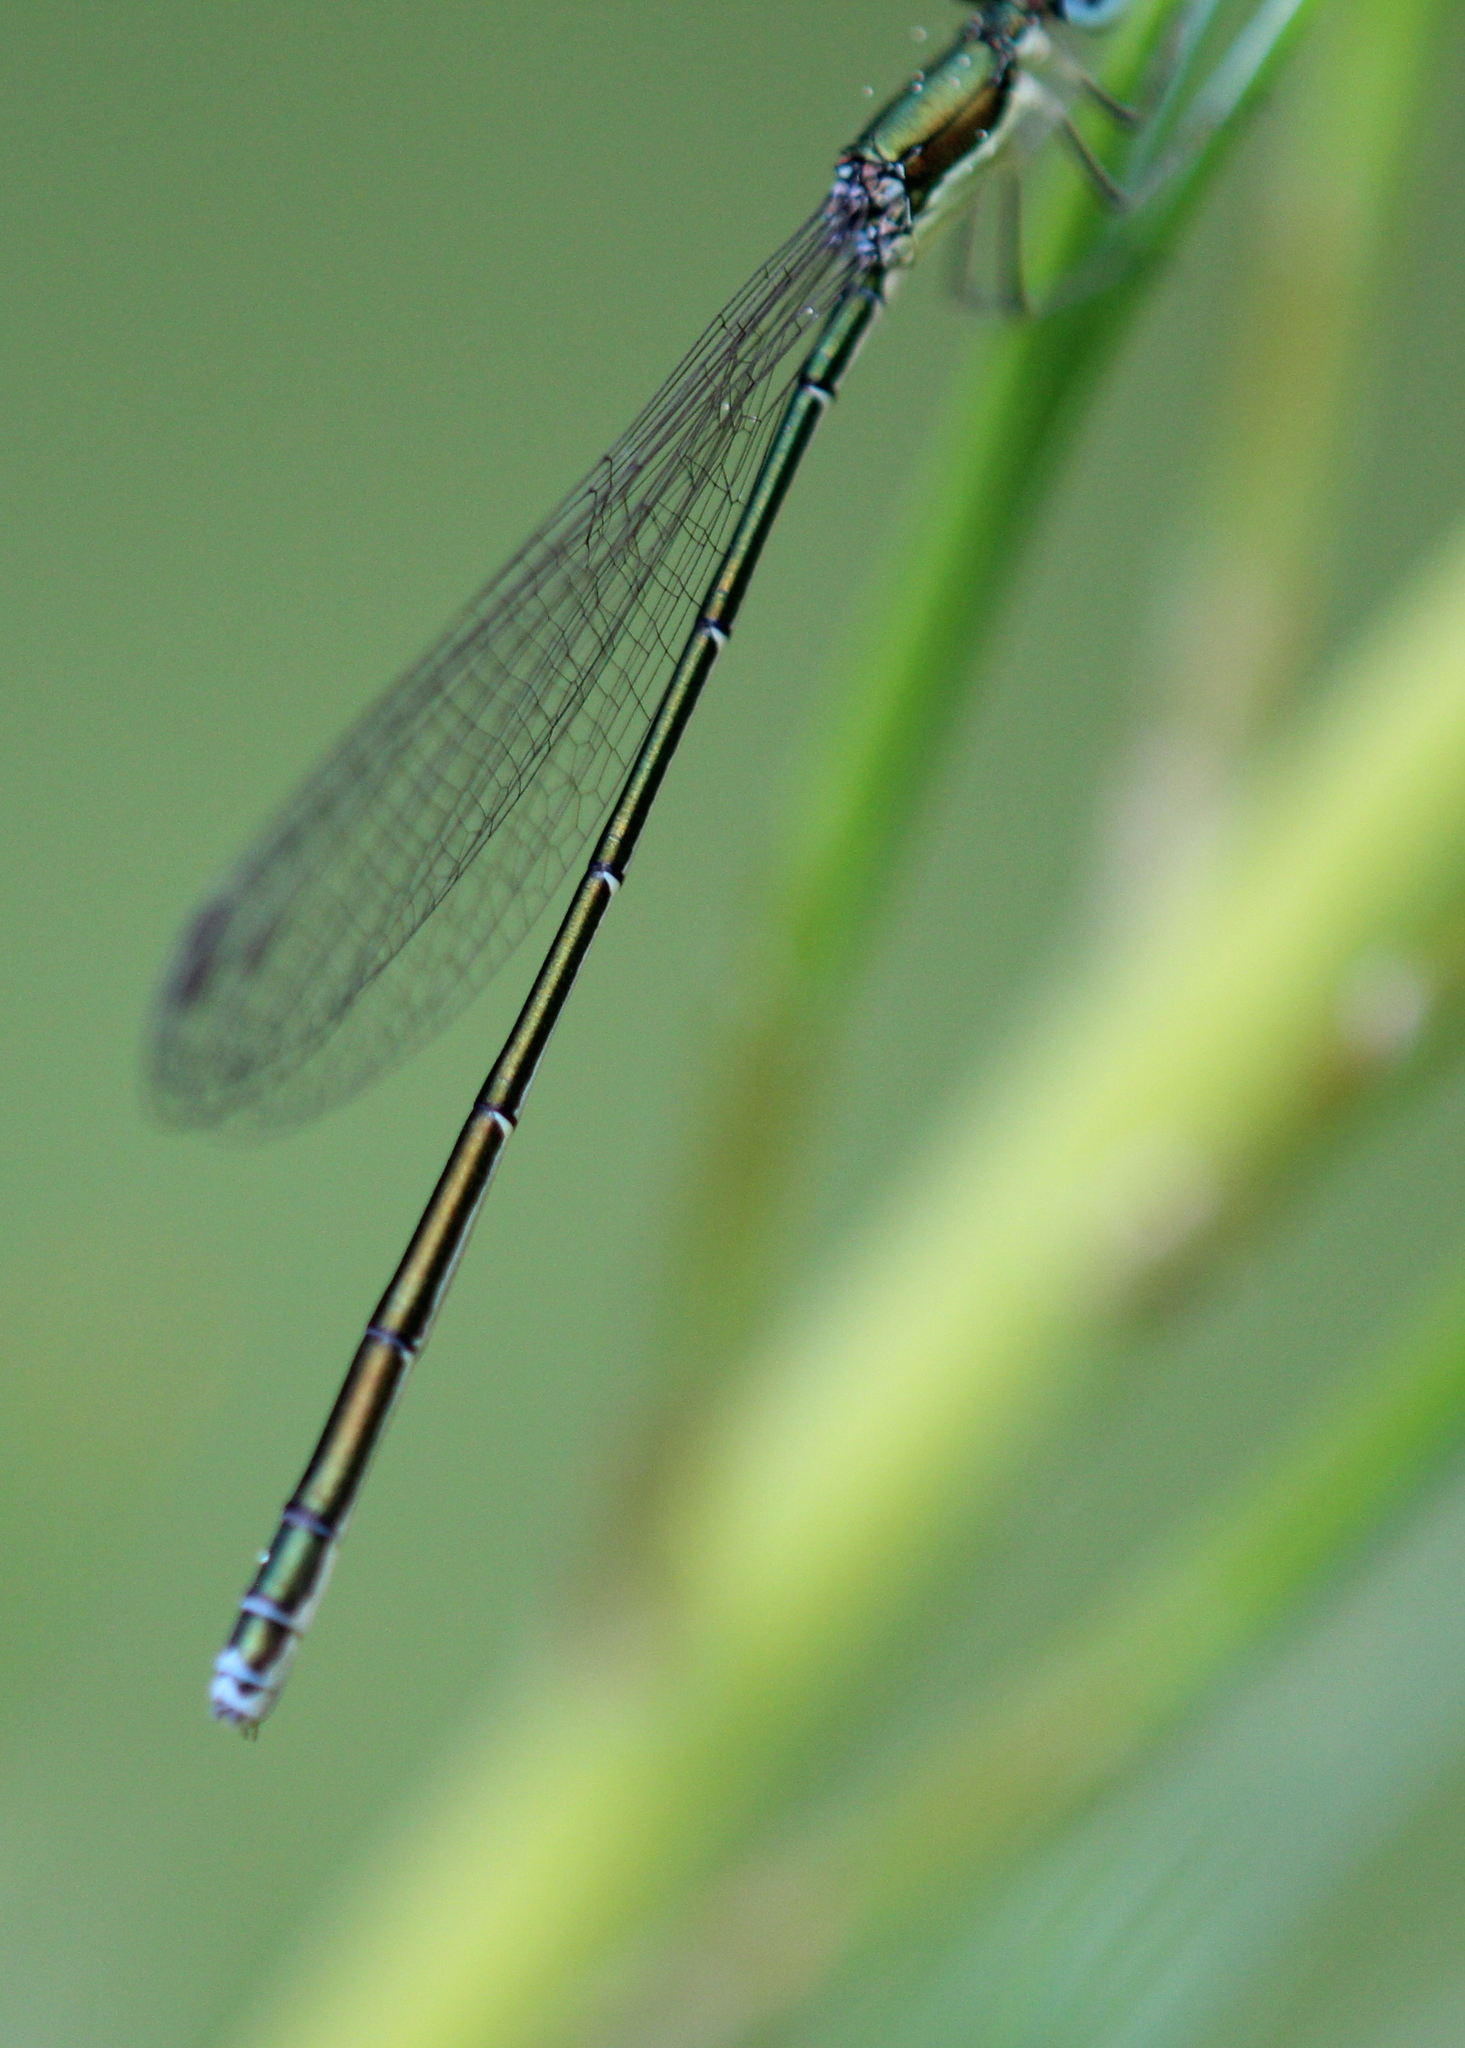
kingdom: Animalia
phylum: Arthropoda
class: Insecta
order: Odonata
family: Coenagrionidae
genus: Nehalennia
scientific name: Nehalennia irene
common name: Sedge sprite
